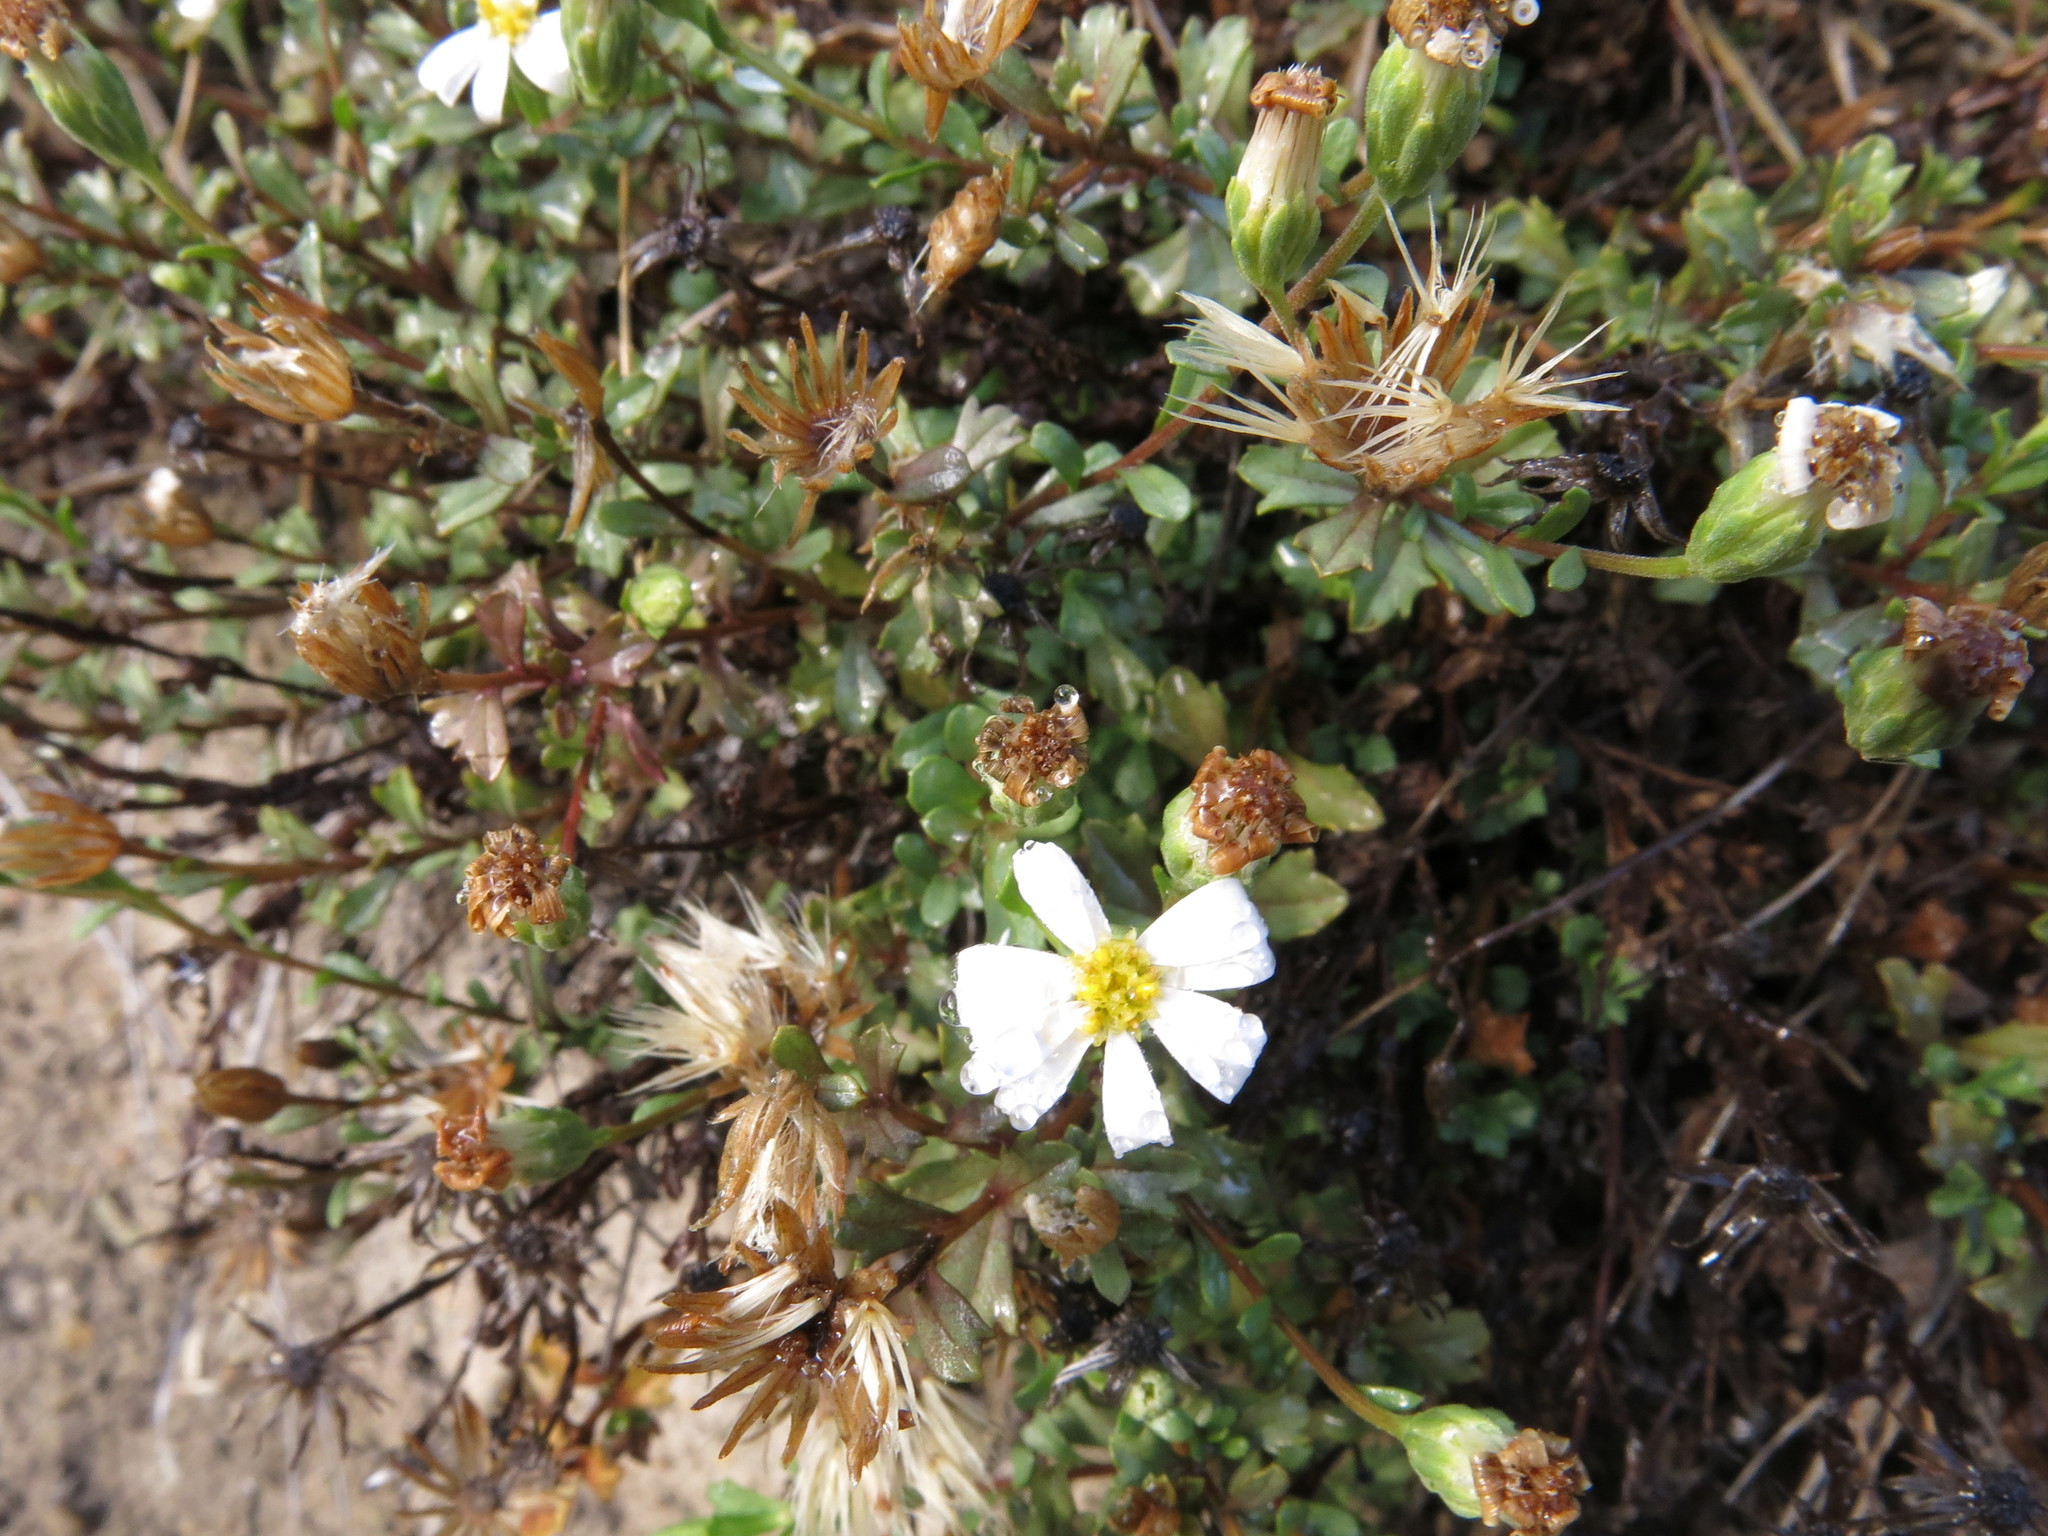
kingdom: Plantae
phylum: Tracheophyta
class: Magnoliopsida
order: Asterales
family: Asteraceae
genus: Vittadinia
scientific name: Vittadinia australis
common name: White fuzzweed
